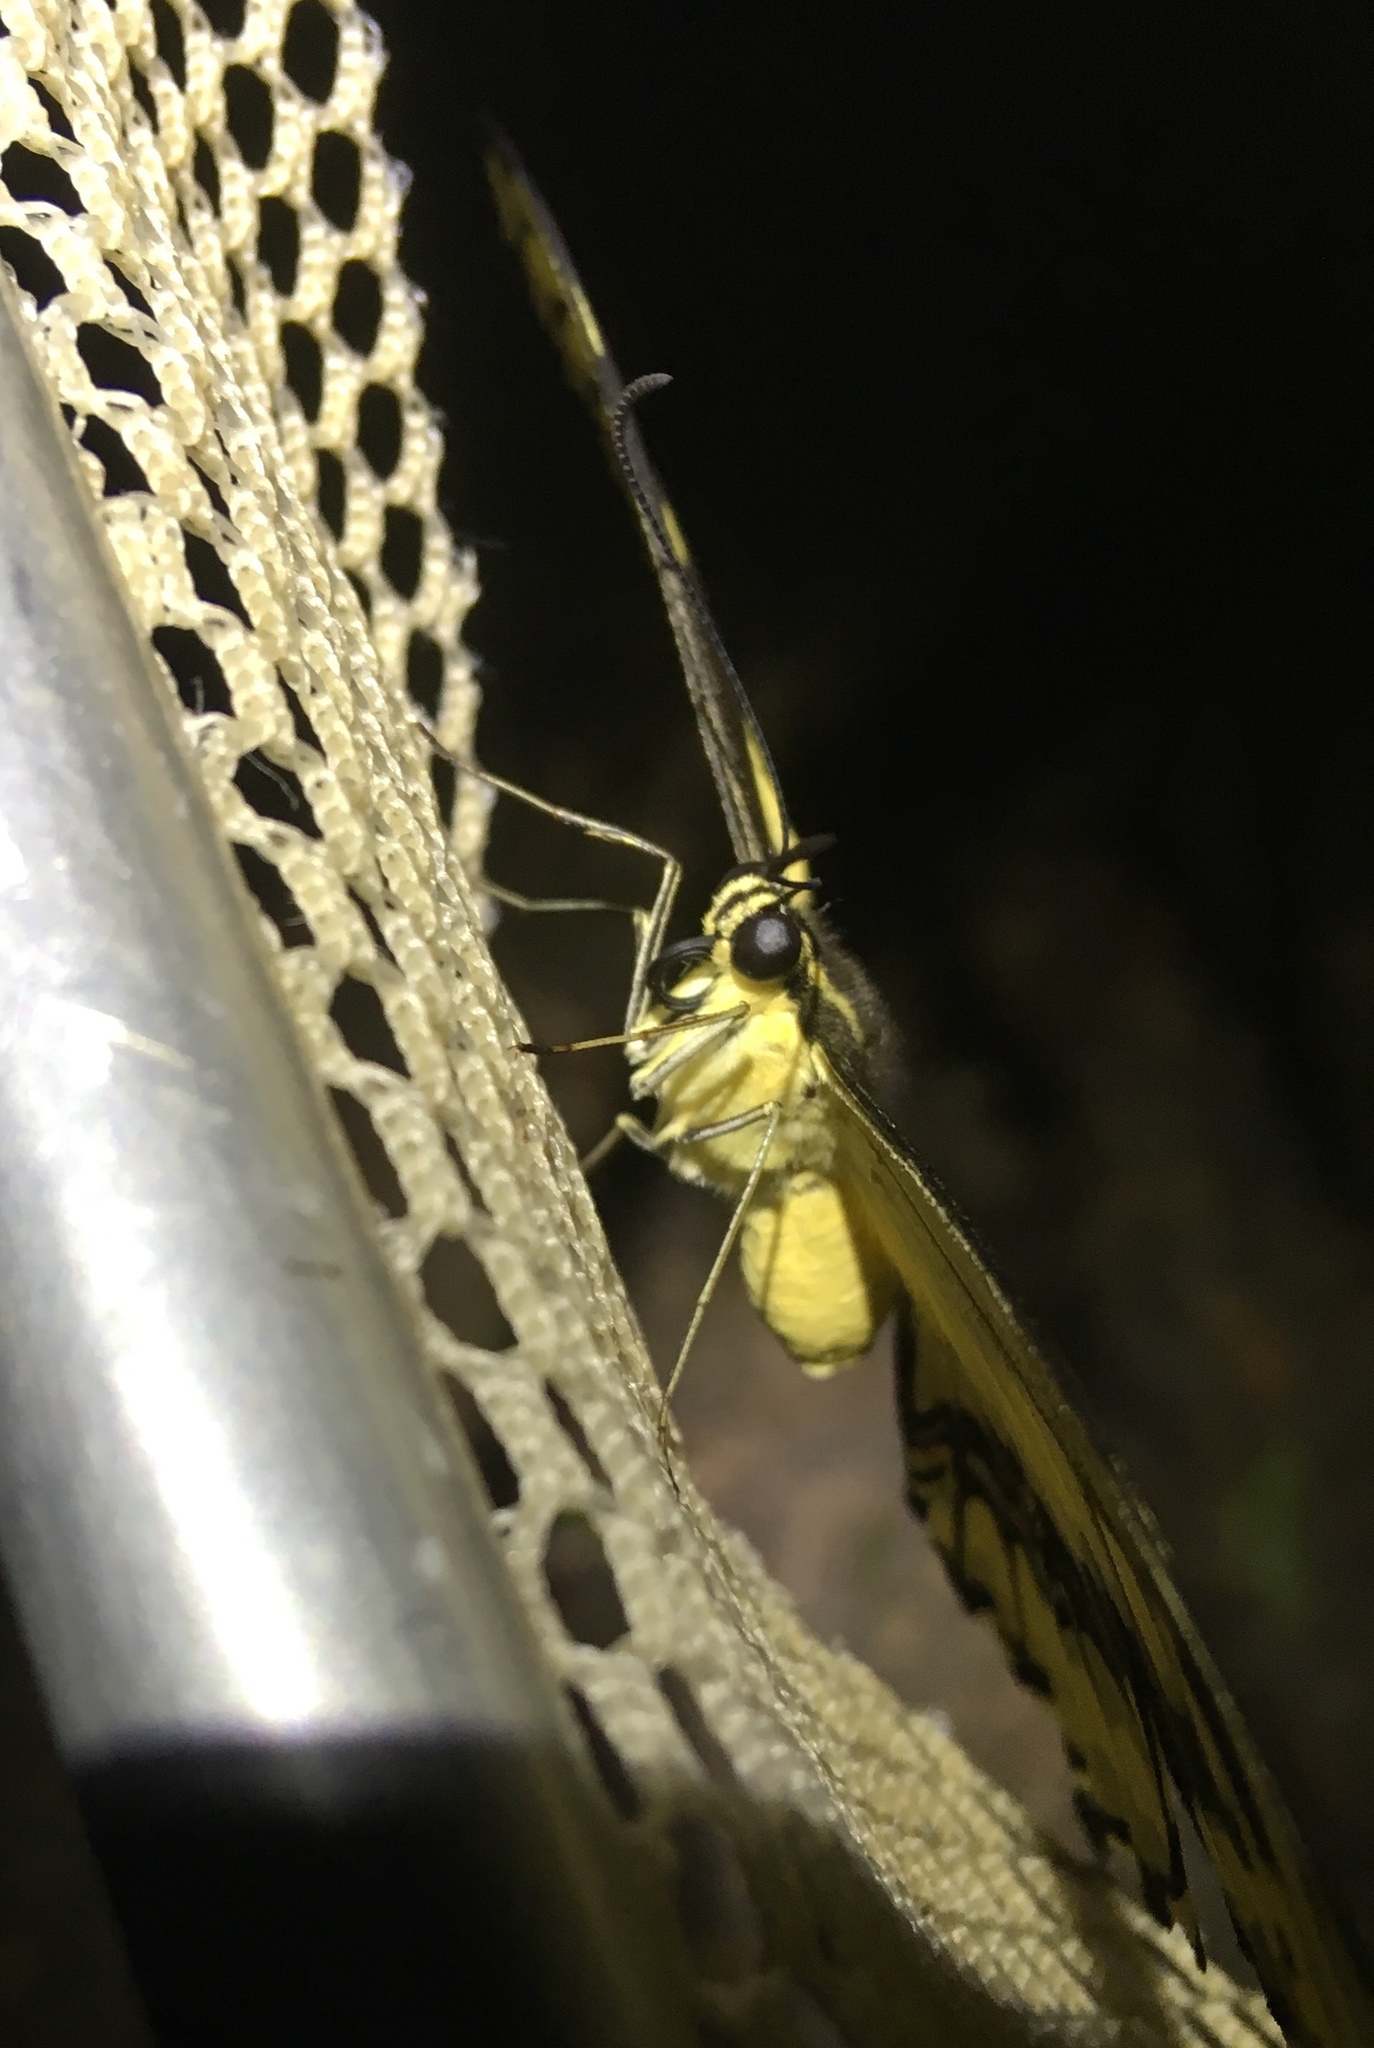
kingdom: Animalia
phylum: Arthropoda
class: Insecta
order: Lepidoptera
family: Papilionidae
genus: Papilio
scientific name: Papilio thoas
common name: King swallowtail
